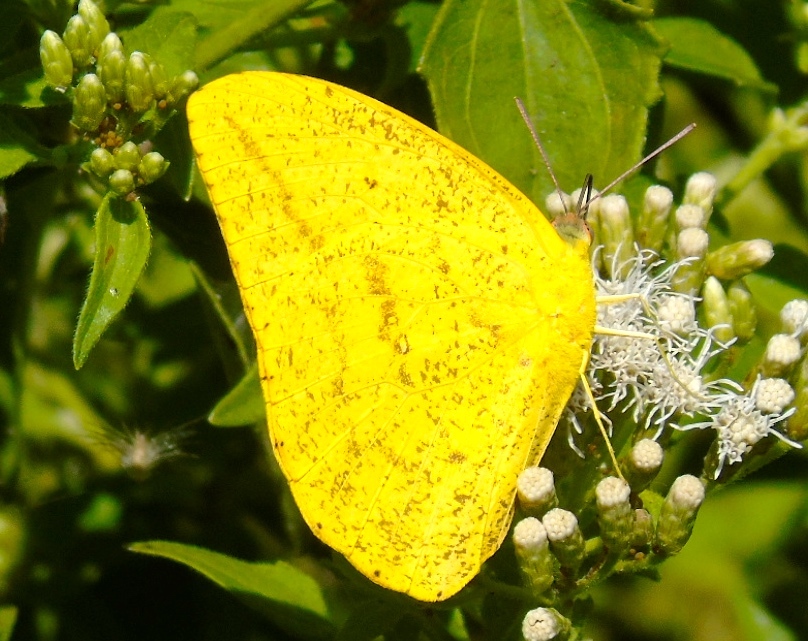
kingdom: Animalia
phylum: Arthropoda
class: Insecta
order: Lepidoptera
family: Pieridae
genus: Phoebis
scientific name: Phoebis agarithe
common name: Large orange sulphur
